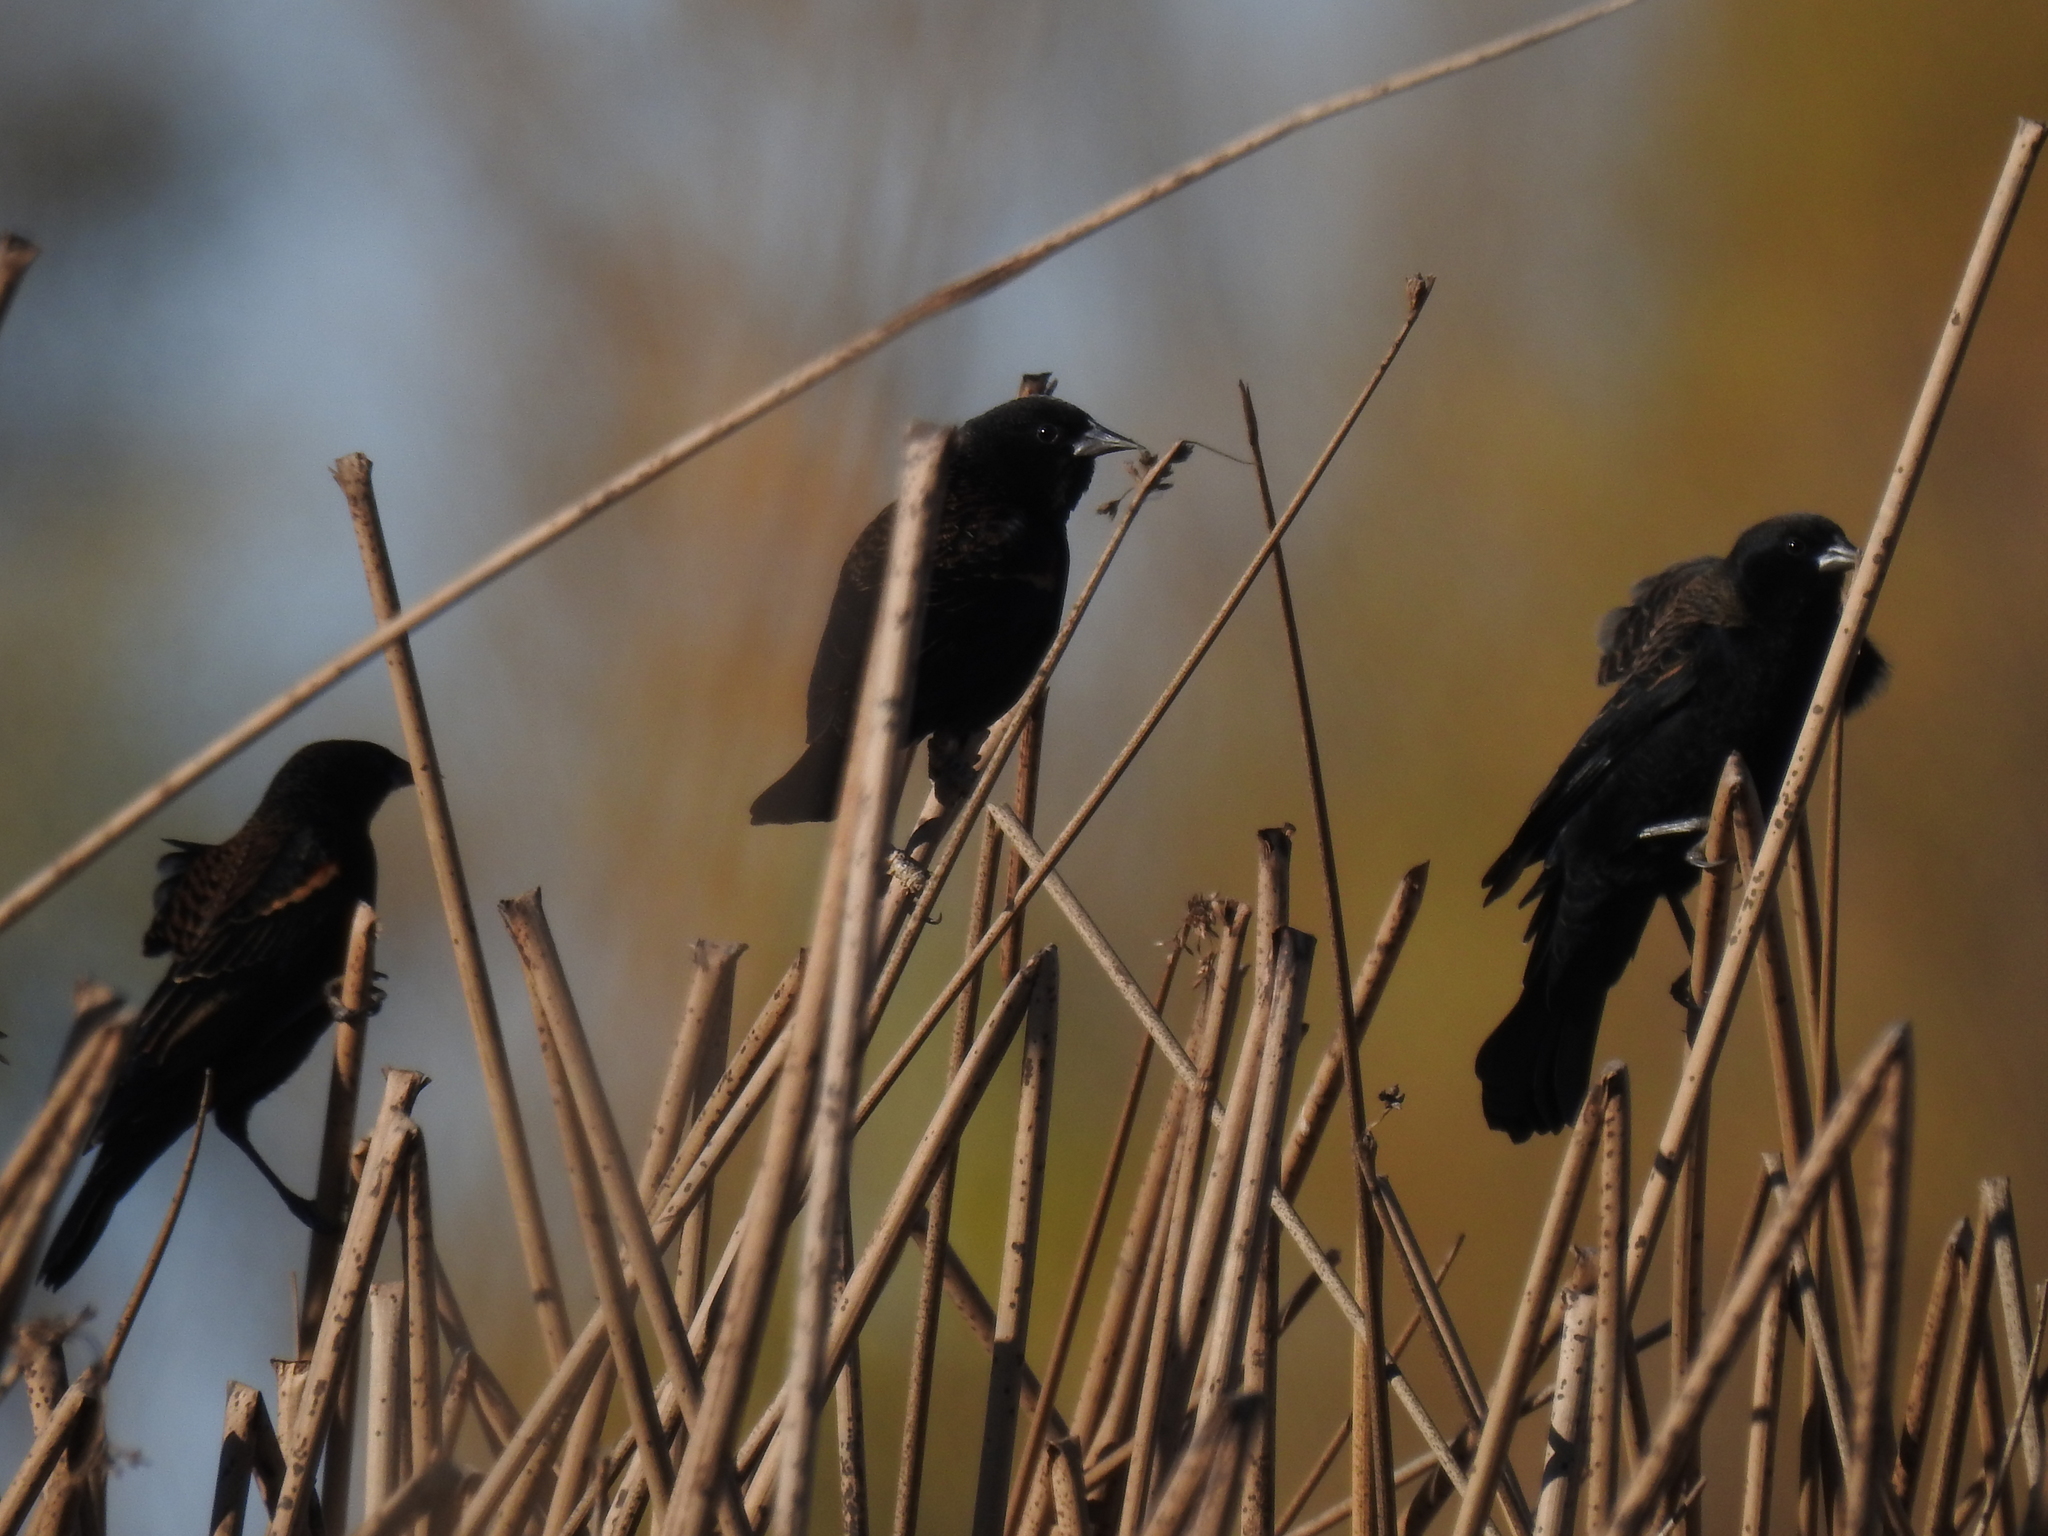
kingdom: Animalia
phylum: Chordata
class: Aves
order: Passeriformes
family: Icteridae
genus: Agelaius
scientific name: Agelaius phoeniceus
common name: Red-winged blackbird
